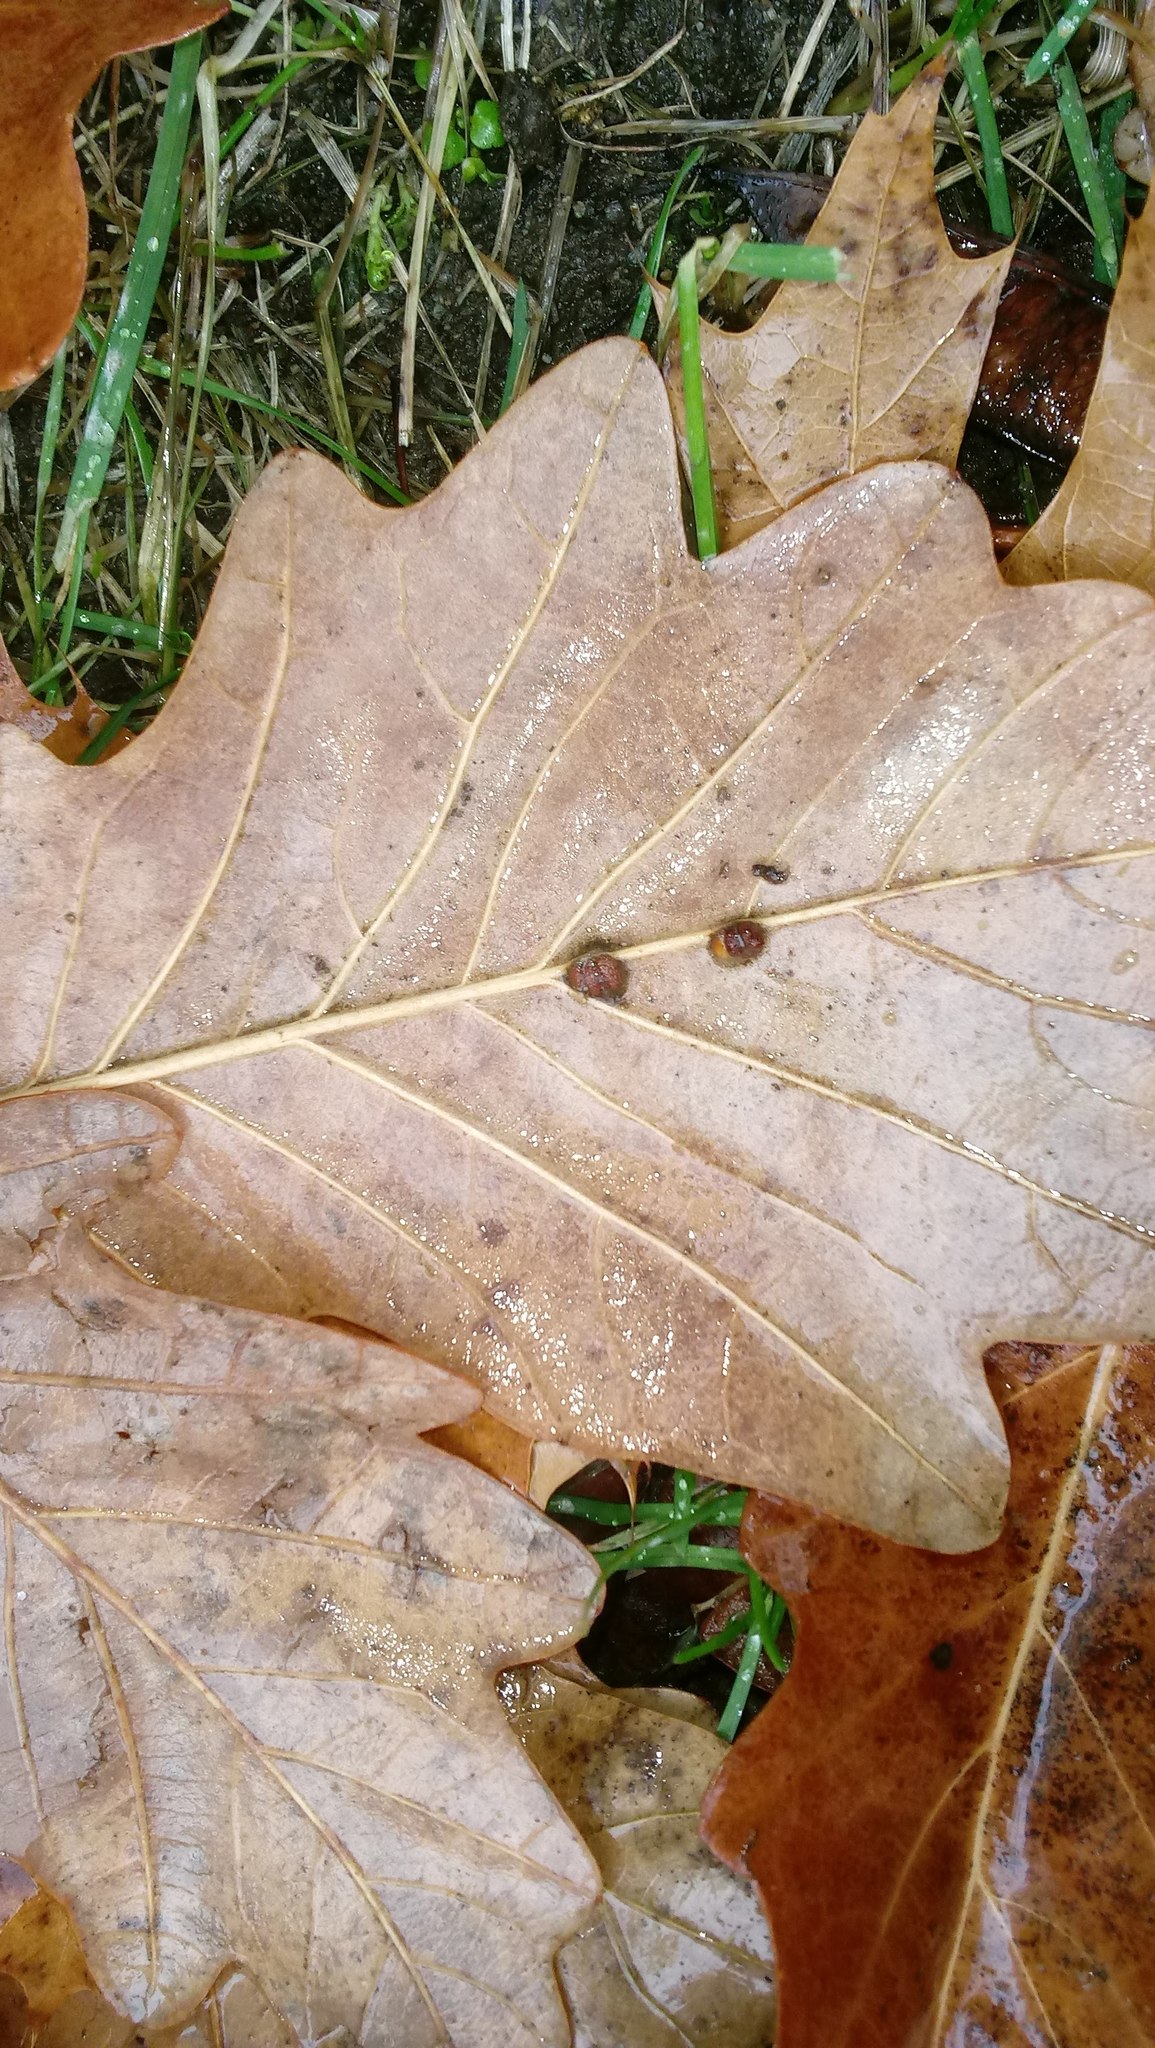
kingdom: Animalia
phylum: Arthropoda
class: Insecta
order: Hymenoptera
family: Cynipidae
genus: Andricus
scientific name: Andricus Druon ignotum
